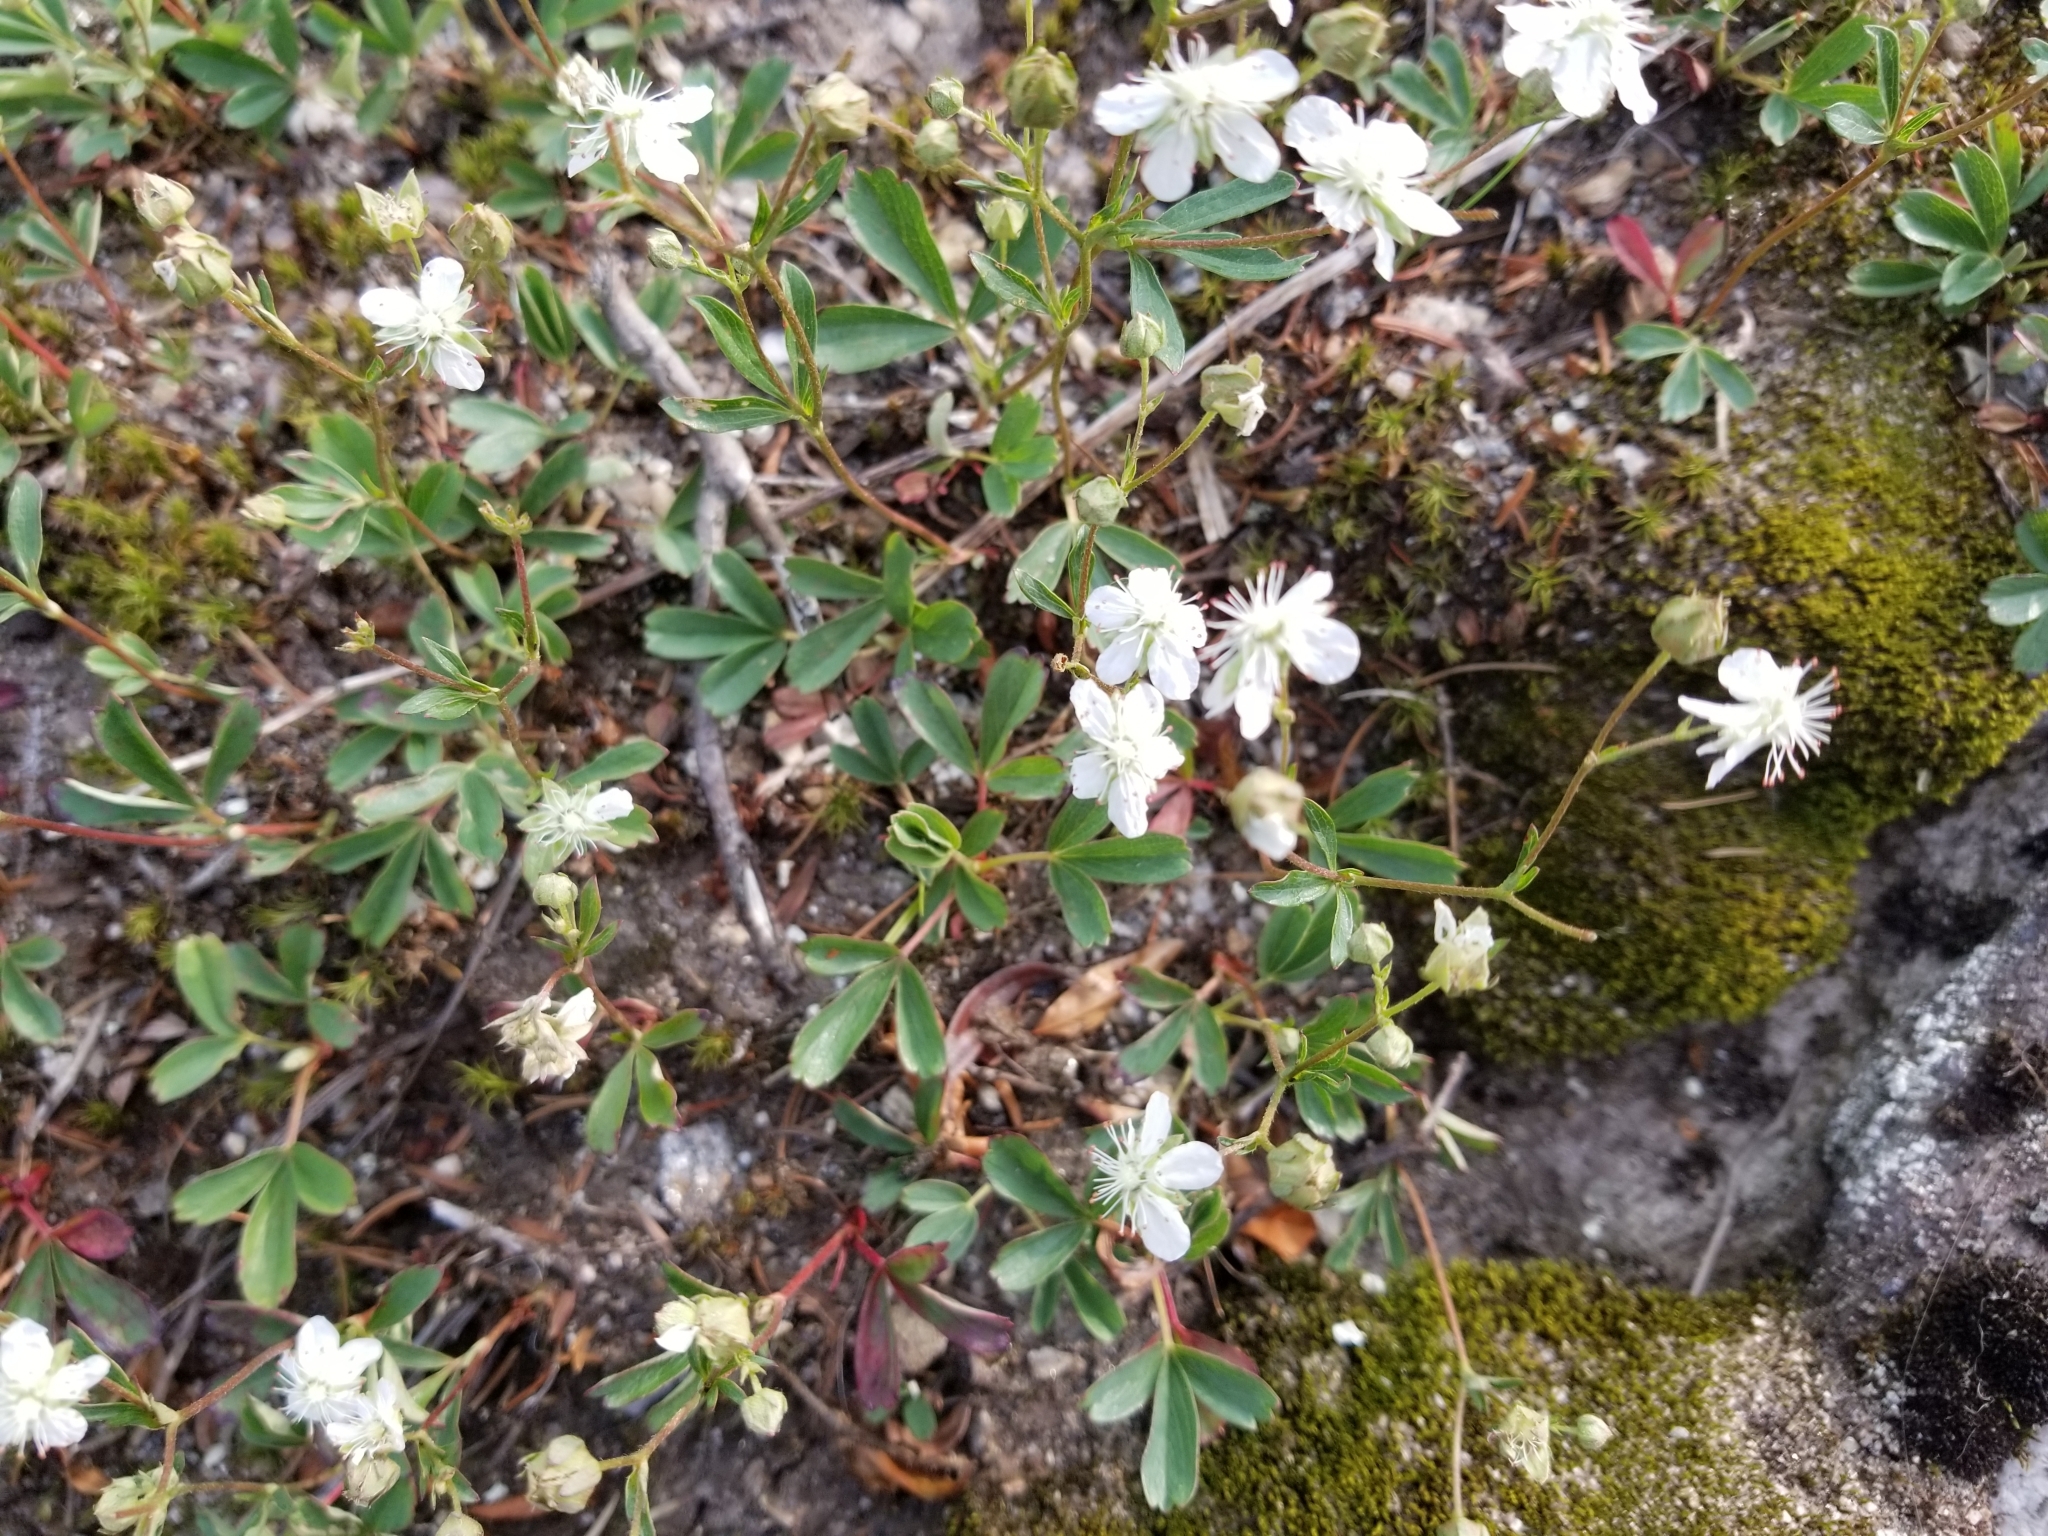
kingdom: Plantae
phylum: Tracheophyta
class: Magnoliopsida
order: Rosales
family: Rosaceae
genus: Sibbaldia
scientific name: Sibbaldia tridentata
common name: Three-toothed cinquefoil
